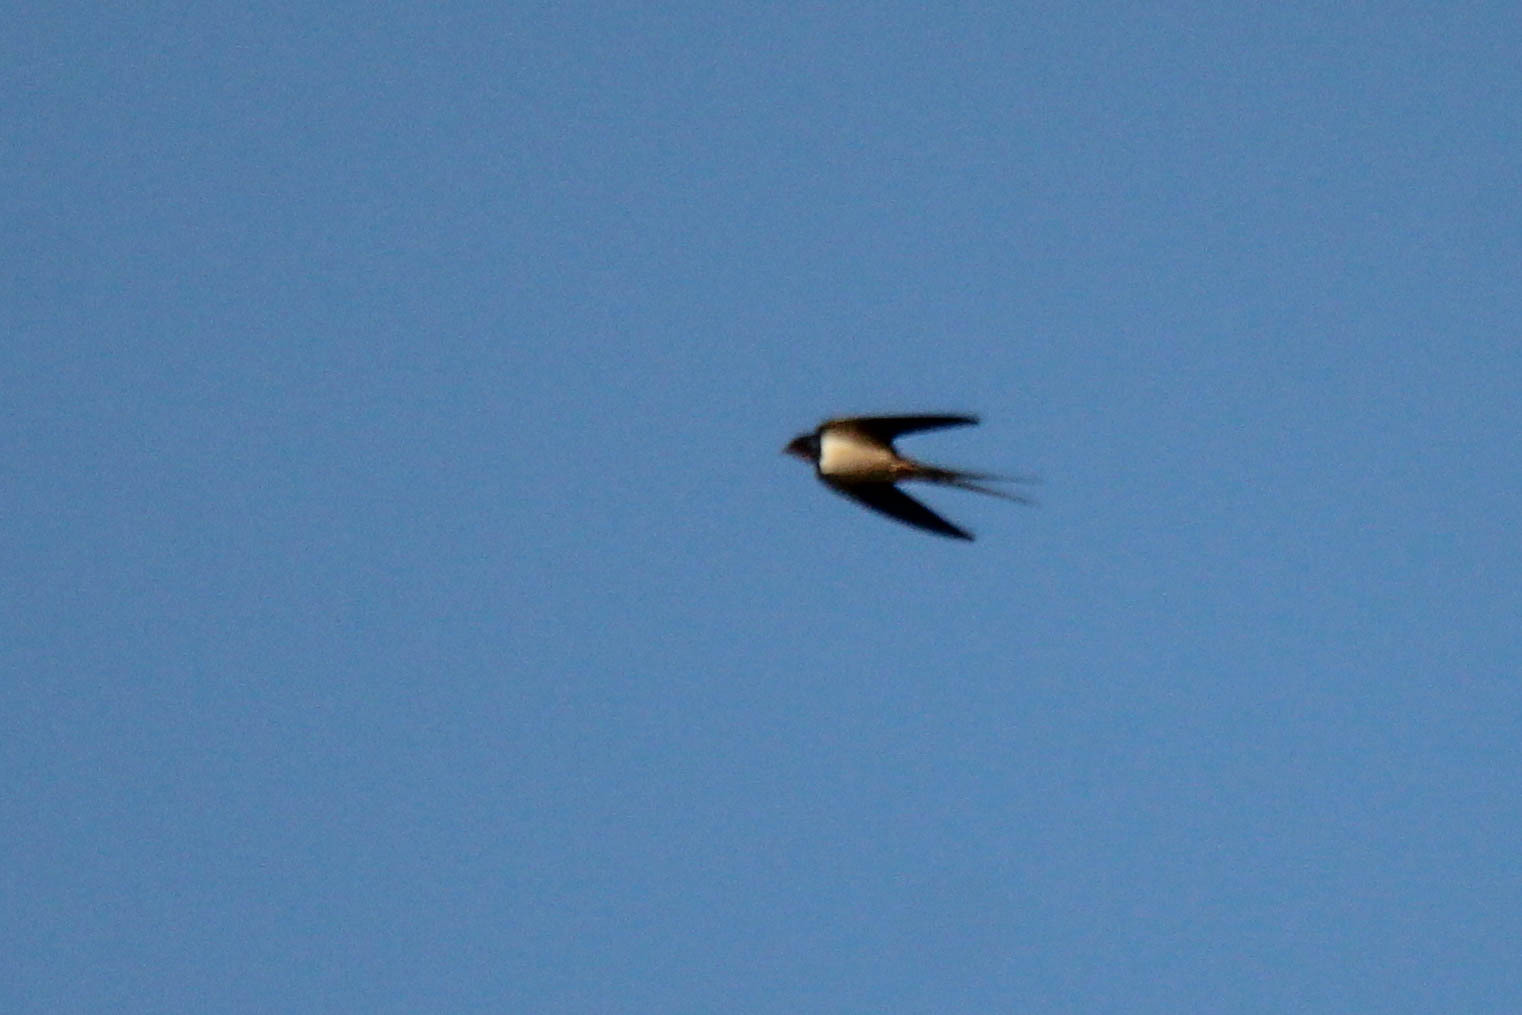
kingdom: Animalia
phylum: Chordata
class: Aves
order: Passeriformes
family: Hirundinidae
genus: Hirundo
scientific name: Hirundo rustica
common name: Barn swallow
